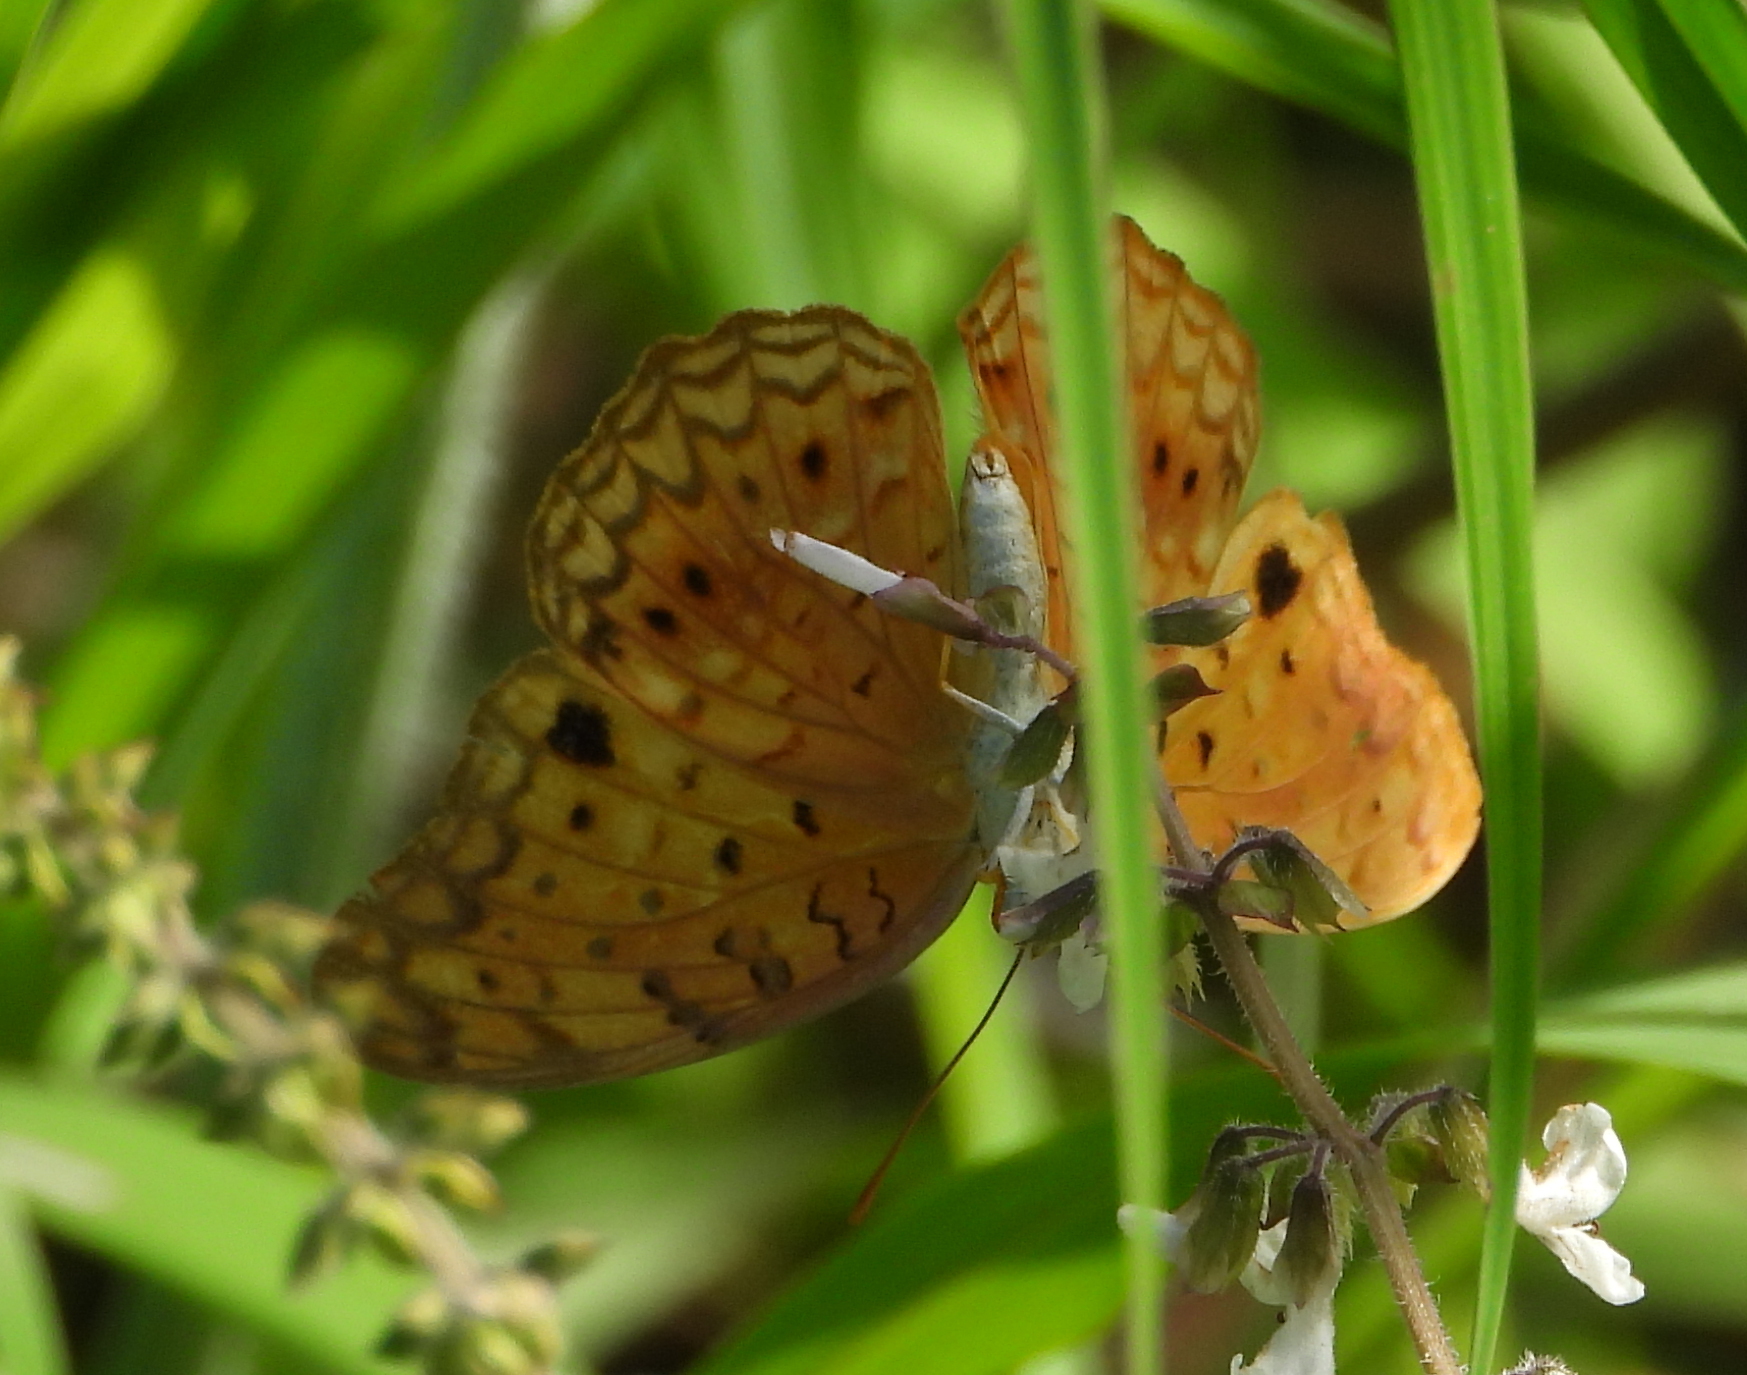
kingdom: Animalia
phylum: Arthropoda
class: Insecta
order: Lepidoptera
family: Nymphalidae
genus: Phalanta
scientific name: Phalanta phalantha
